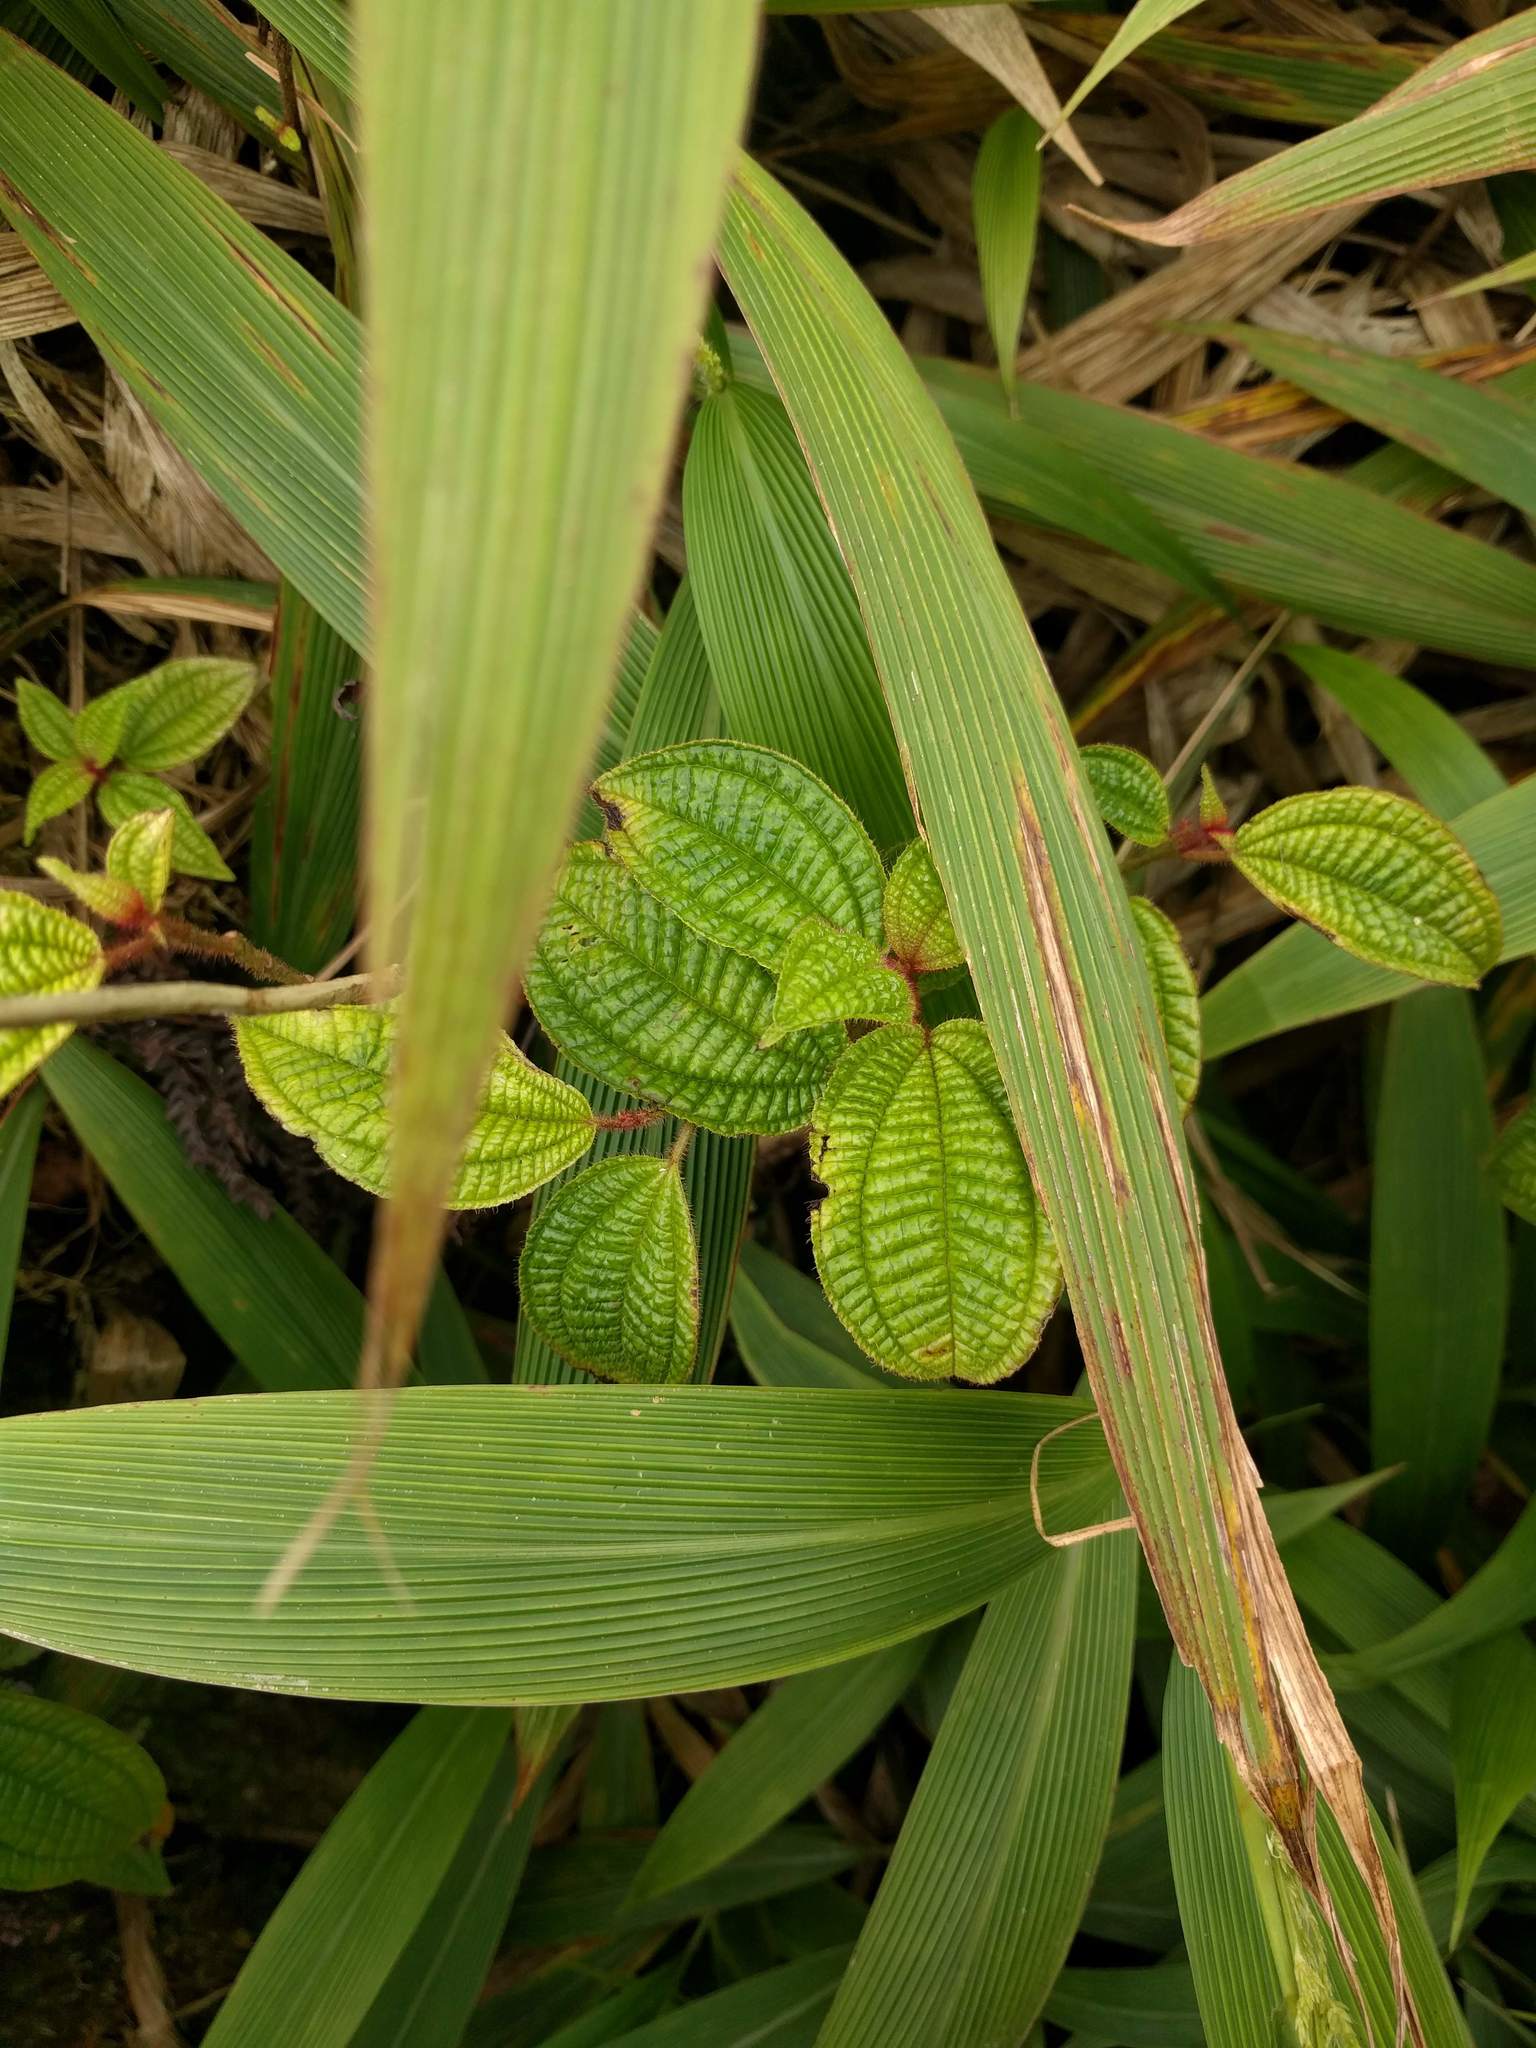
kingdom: Plantae
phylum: Tracheophyta
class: Magnoliopsida
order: Myrtales
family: Melastomataceae
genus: Miconia
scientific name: Miconia crenata
